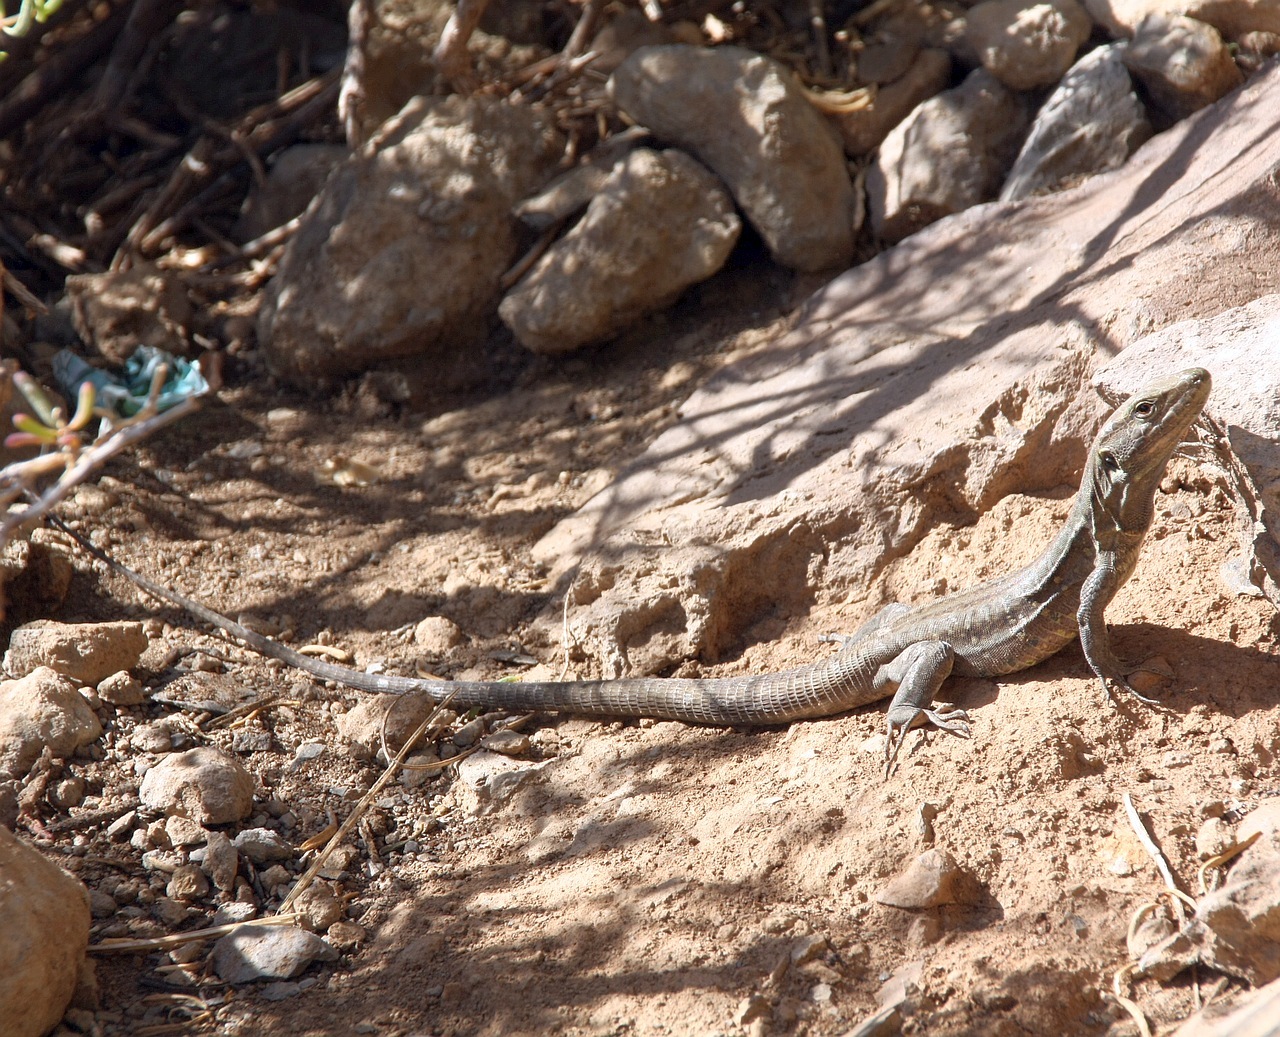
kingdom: Animalia
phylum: Chordata
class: Squamata
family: Lacertidae
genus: Gallotia
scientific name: Gallotia galloti
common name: Gallot's lizard
